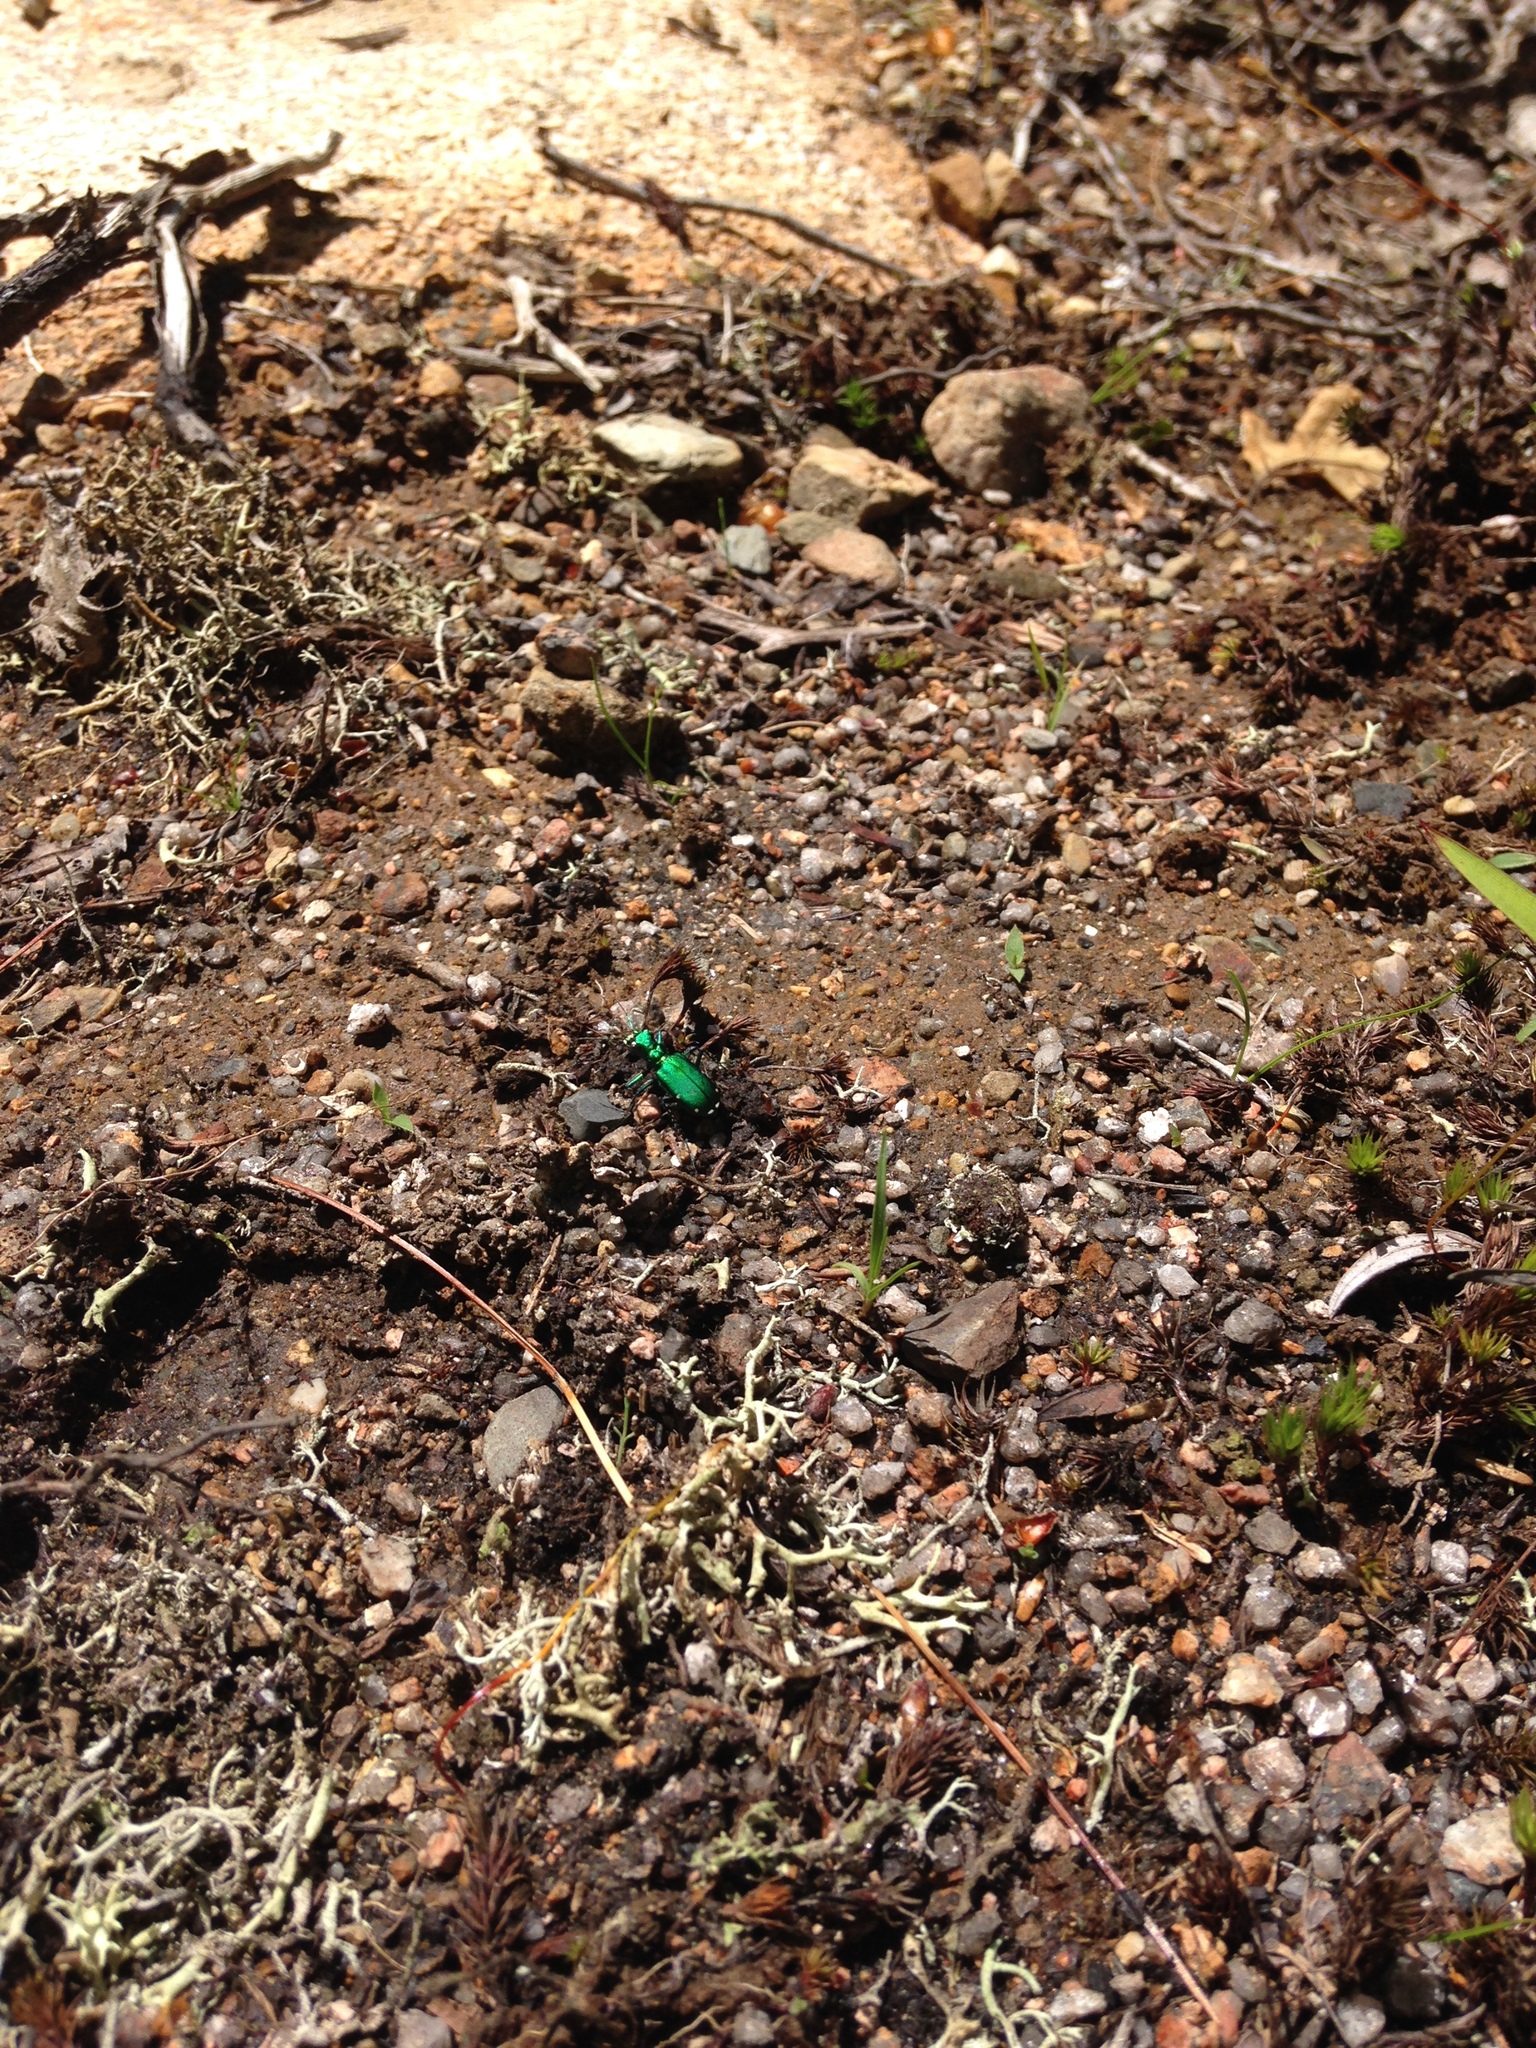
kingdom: Animalia
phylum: Arthropoda
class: Insecta
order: Coleoptera
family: Carabidae
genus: Cicindela
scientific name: Cicindela sexguttata
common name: Six-spotted tiger beetle
